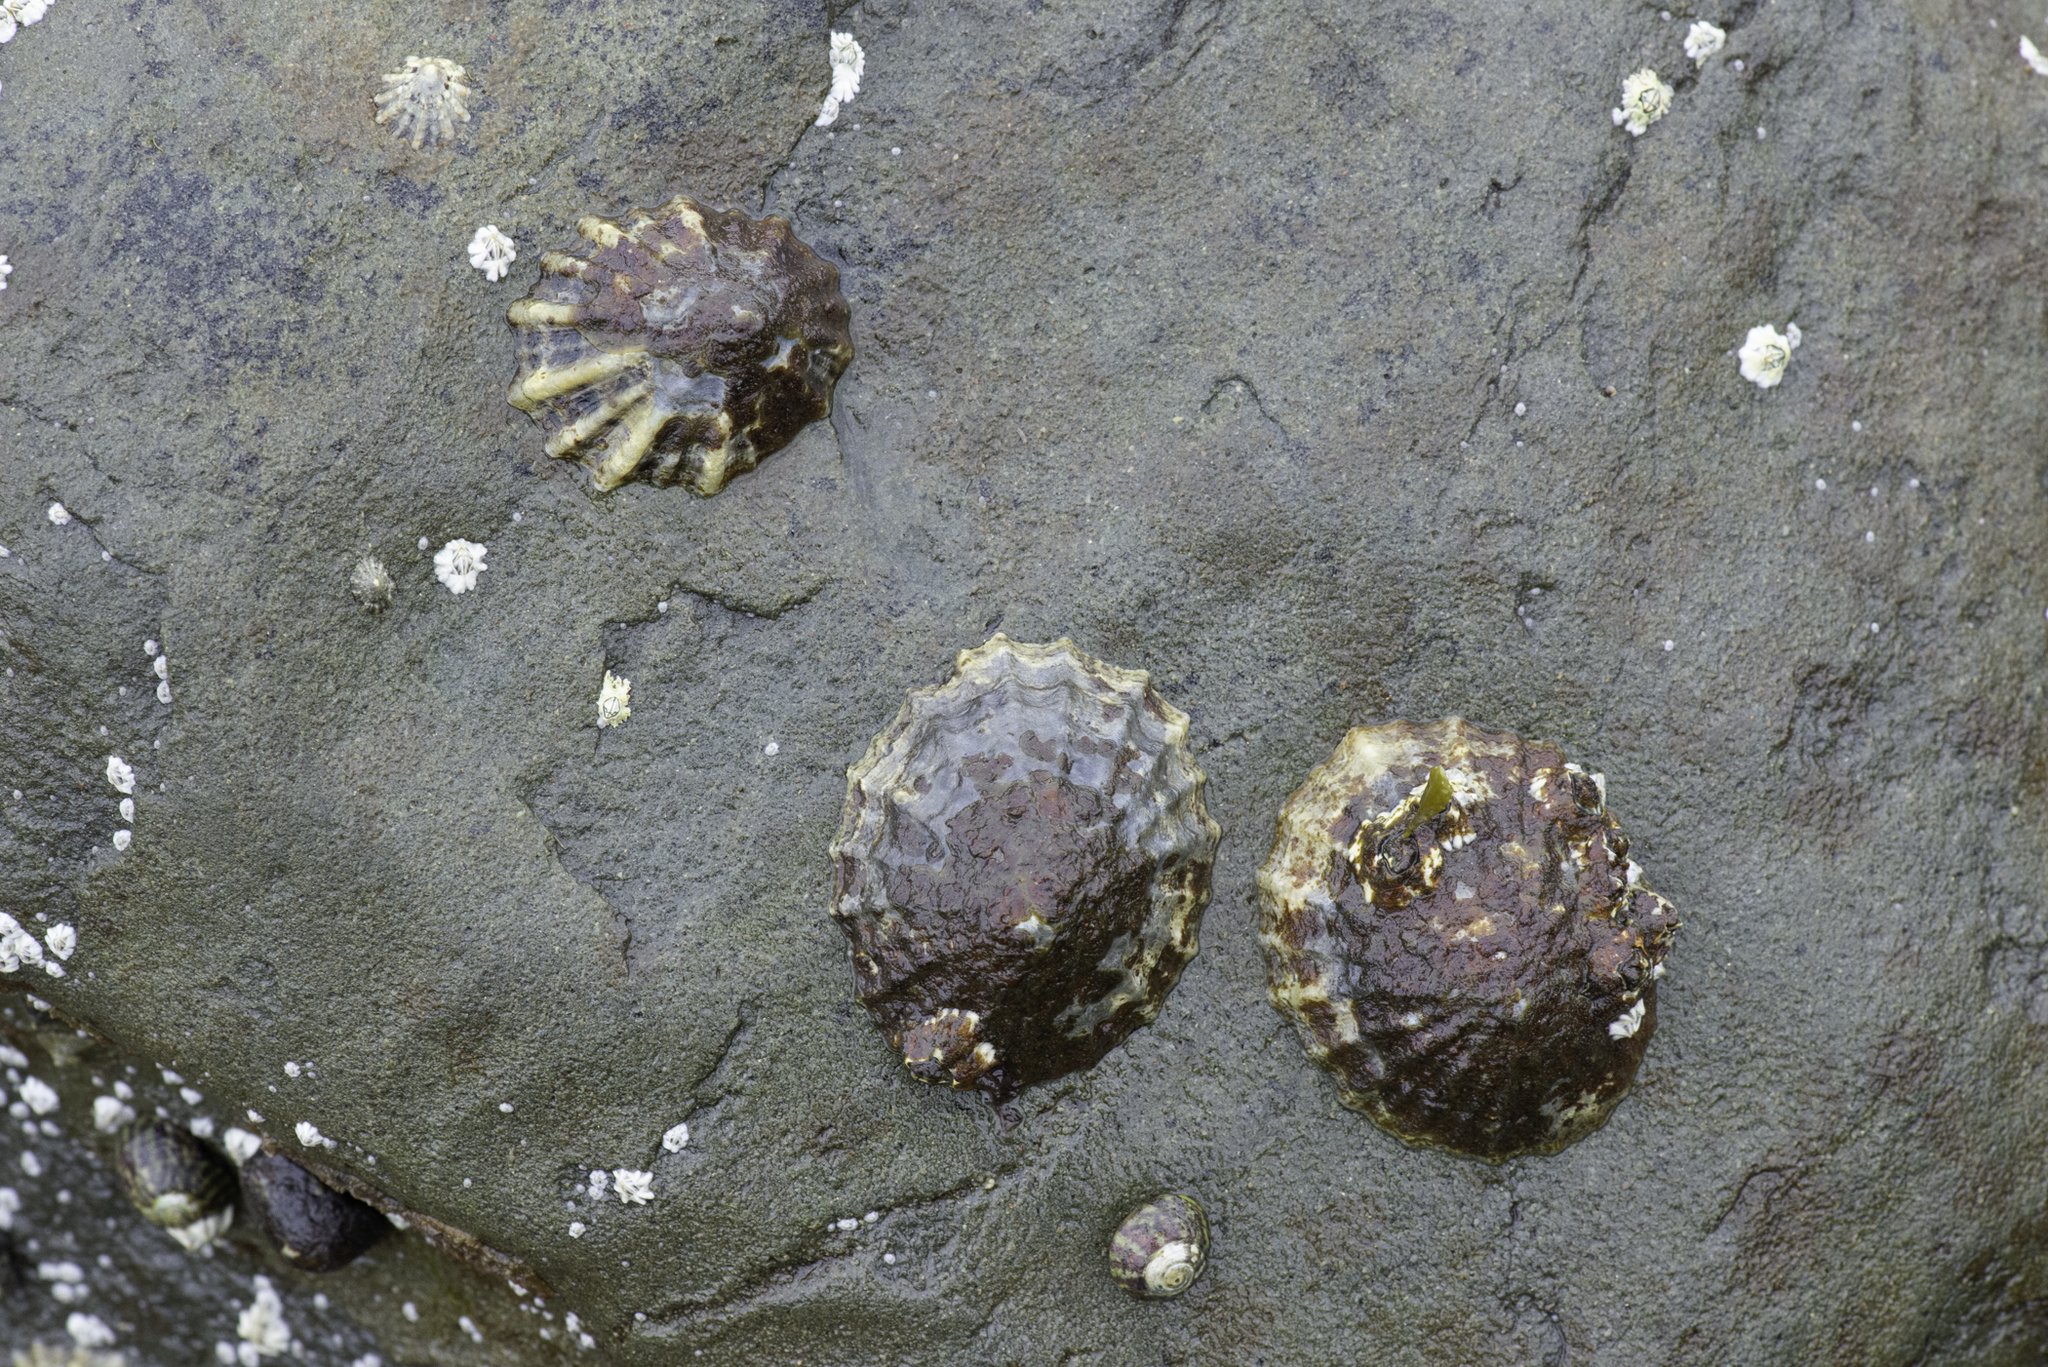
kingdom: Animalia
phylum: Mollusca
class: Gastropoda
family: Patellidae
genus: Patella
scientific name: Patella vulgata
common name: Common limpet
